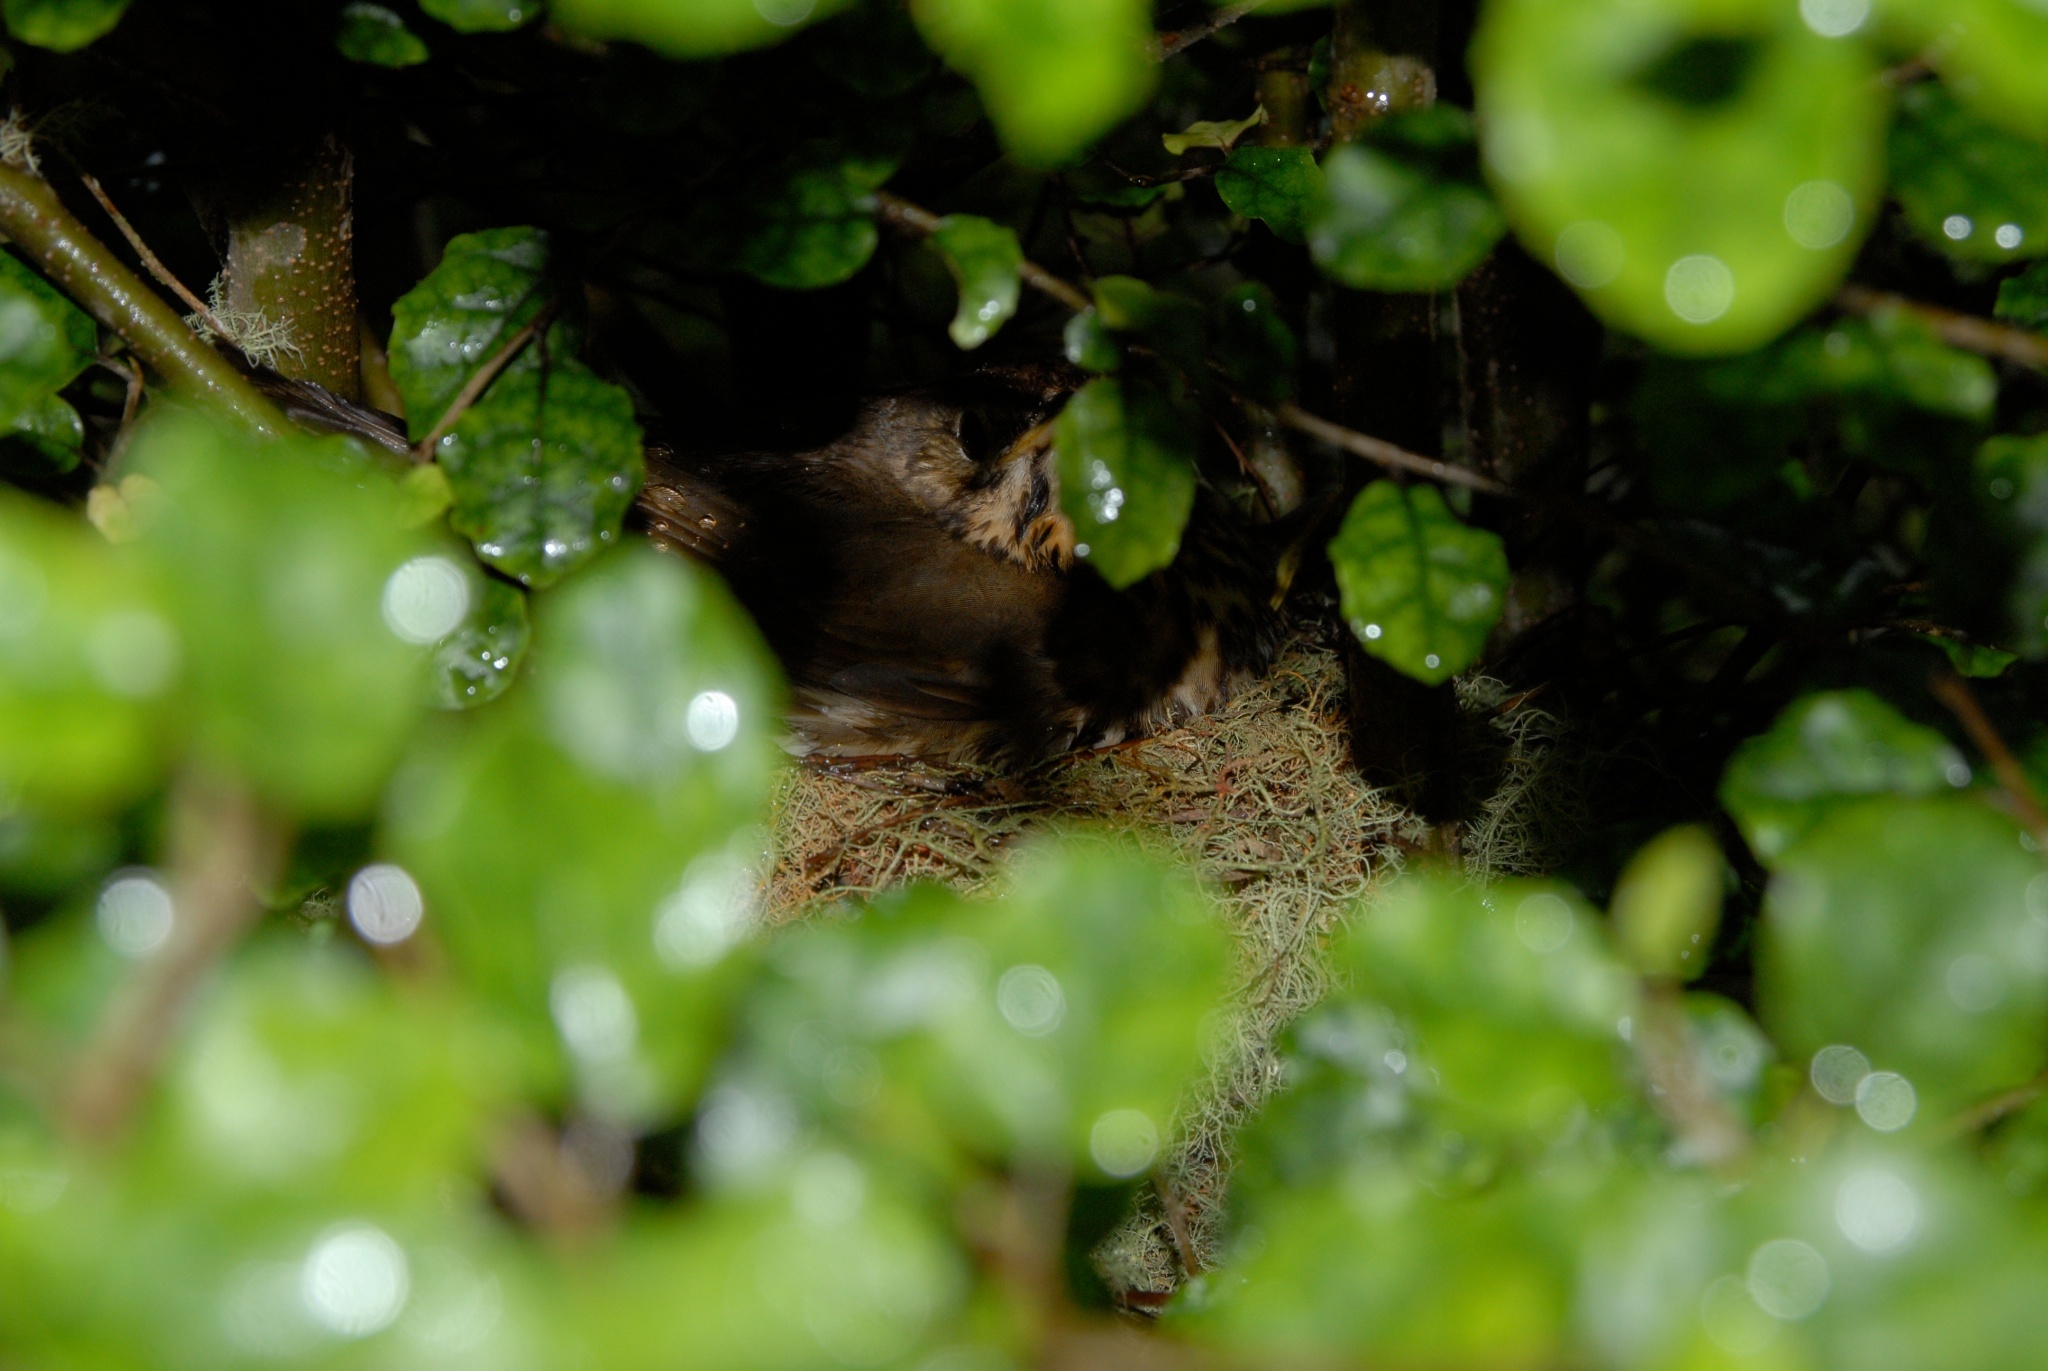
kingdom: Animalia
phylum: Chordata
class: Aves
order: Passeriformes
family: Turdidae
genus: Turdus
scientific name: Turdus philomelos
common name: Song thrush
